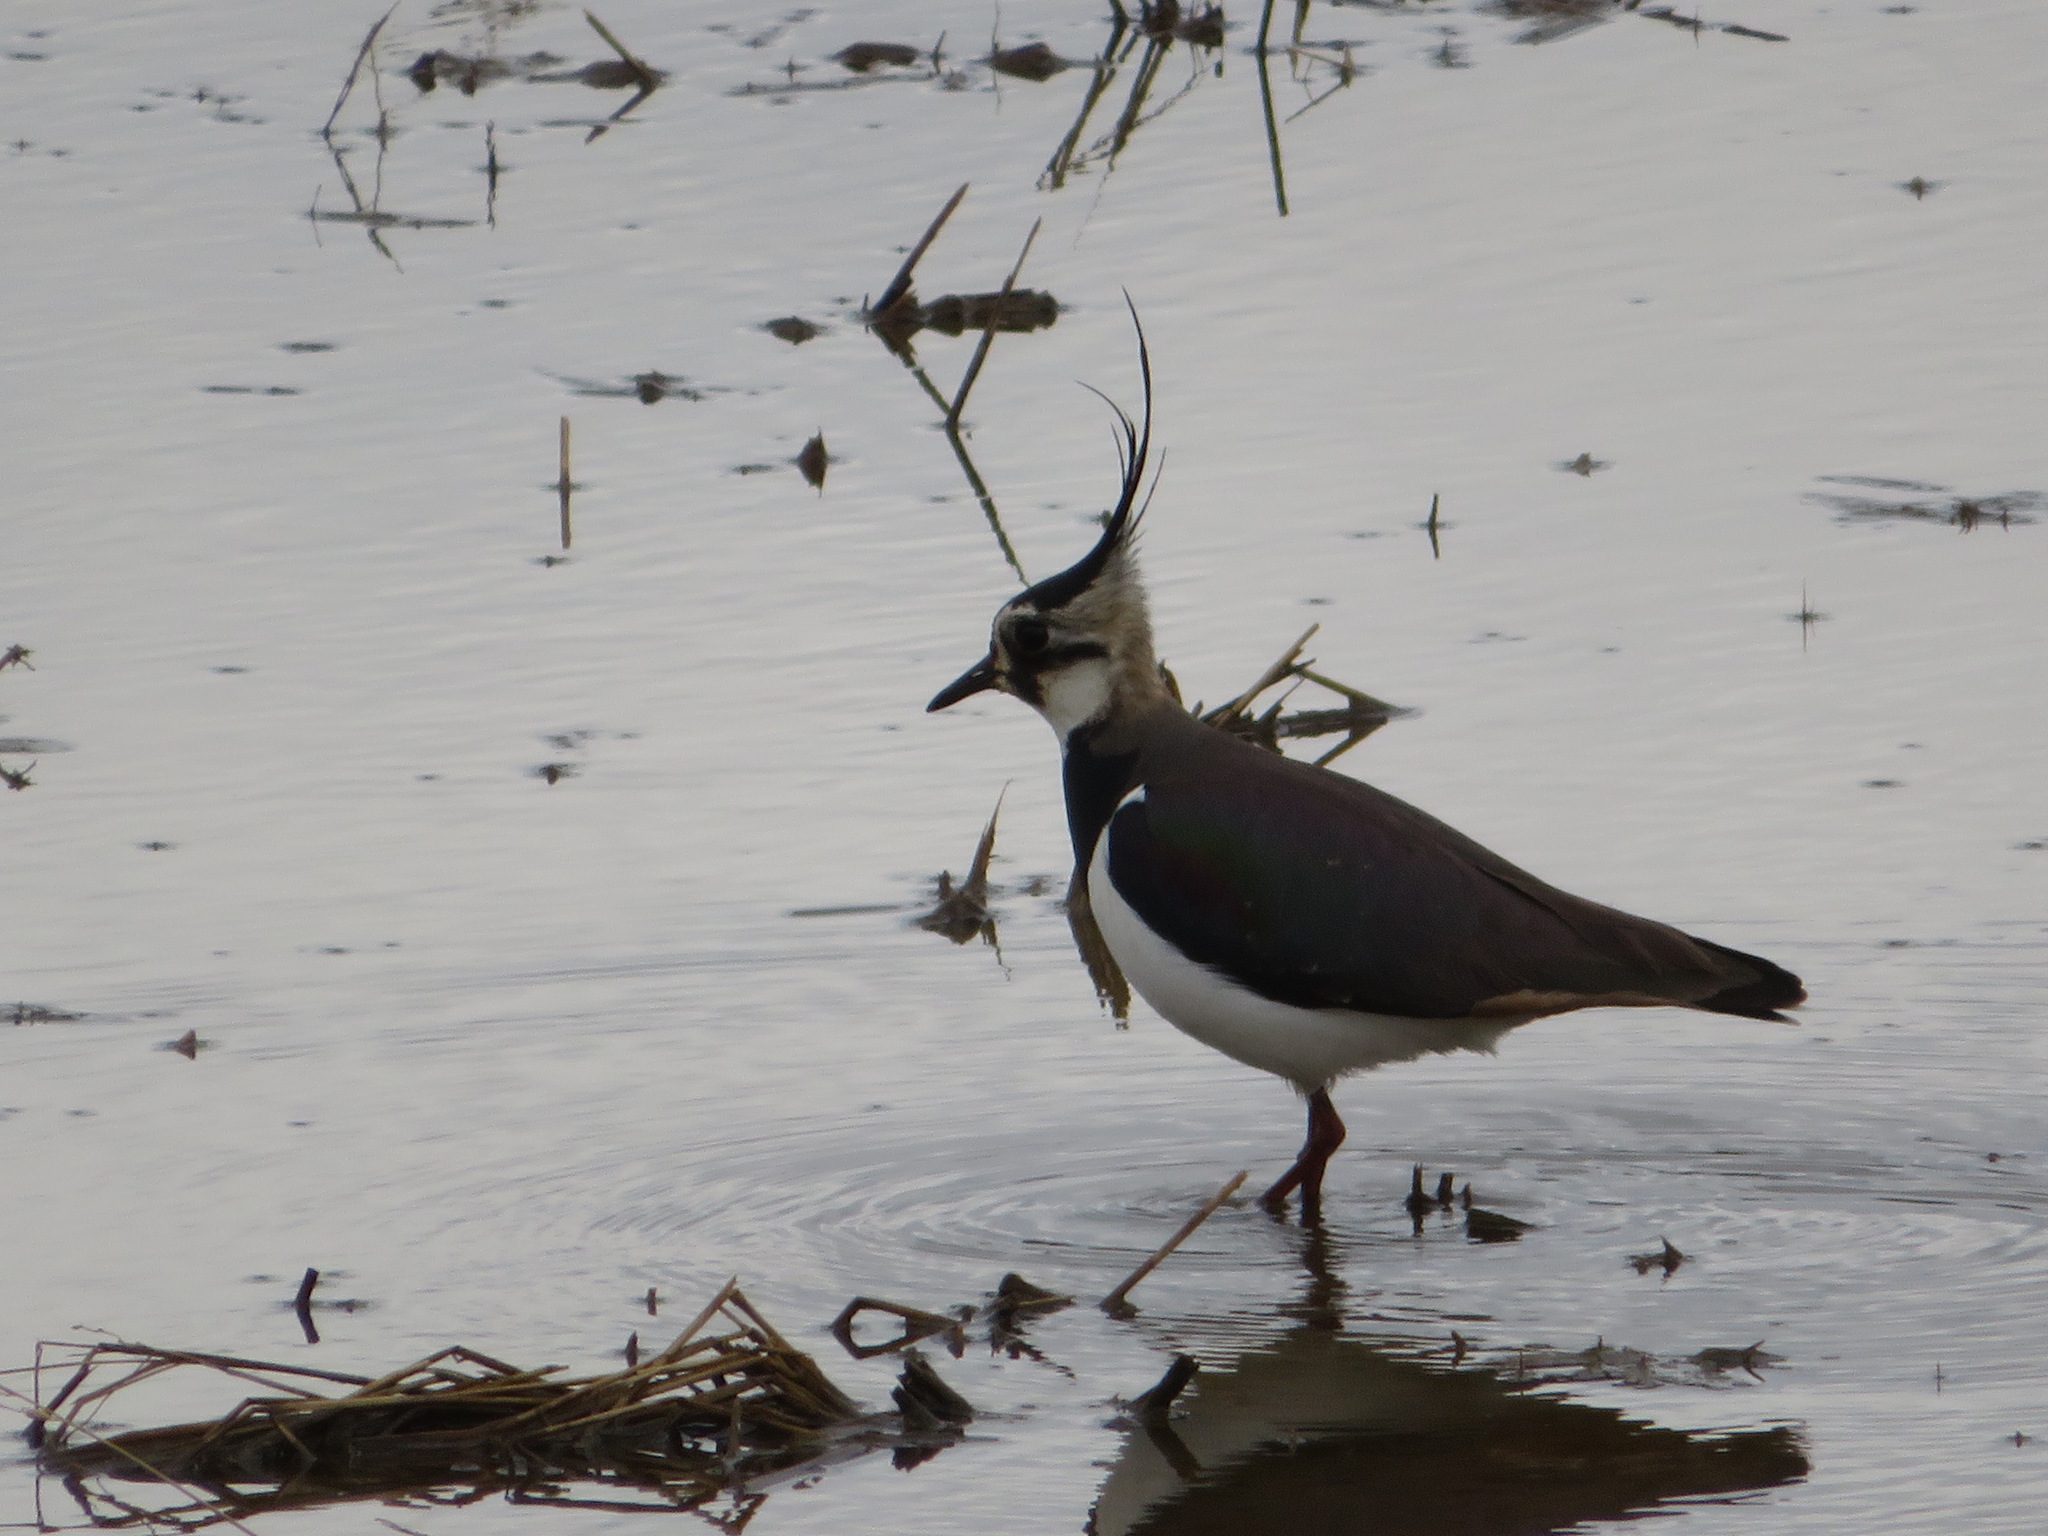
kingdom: Animalia
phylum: Chordata
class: Aves
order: Charadriiformes
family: Charadriidae
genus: Vanellus
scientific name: Vanellus vanellus
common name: Northern lapwing
